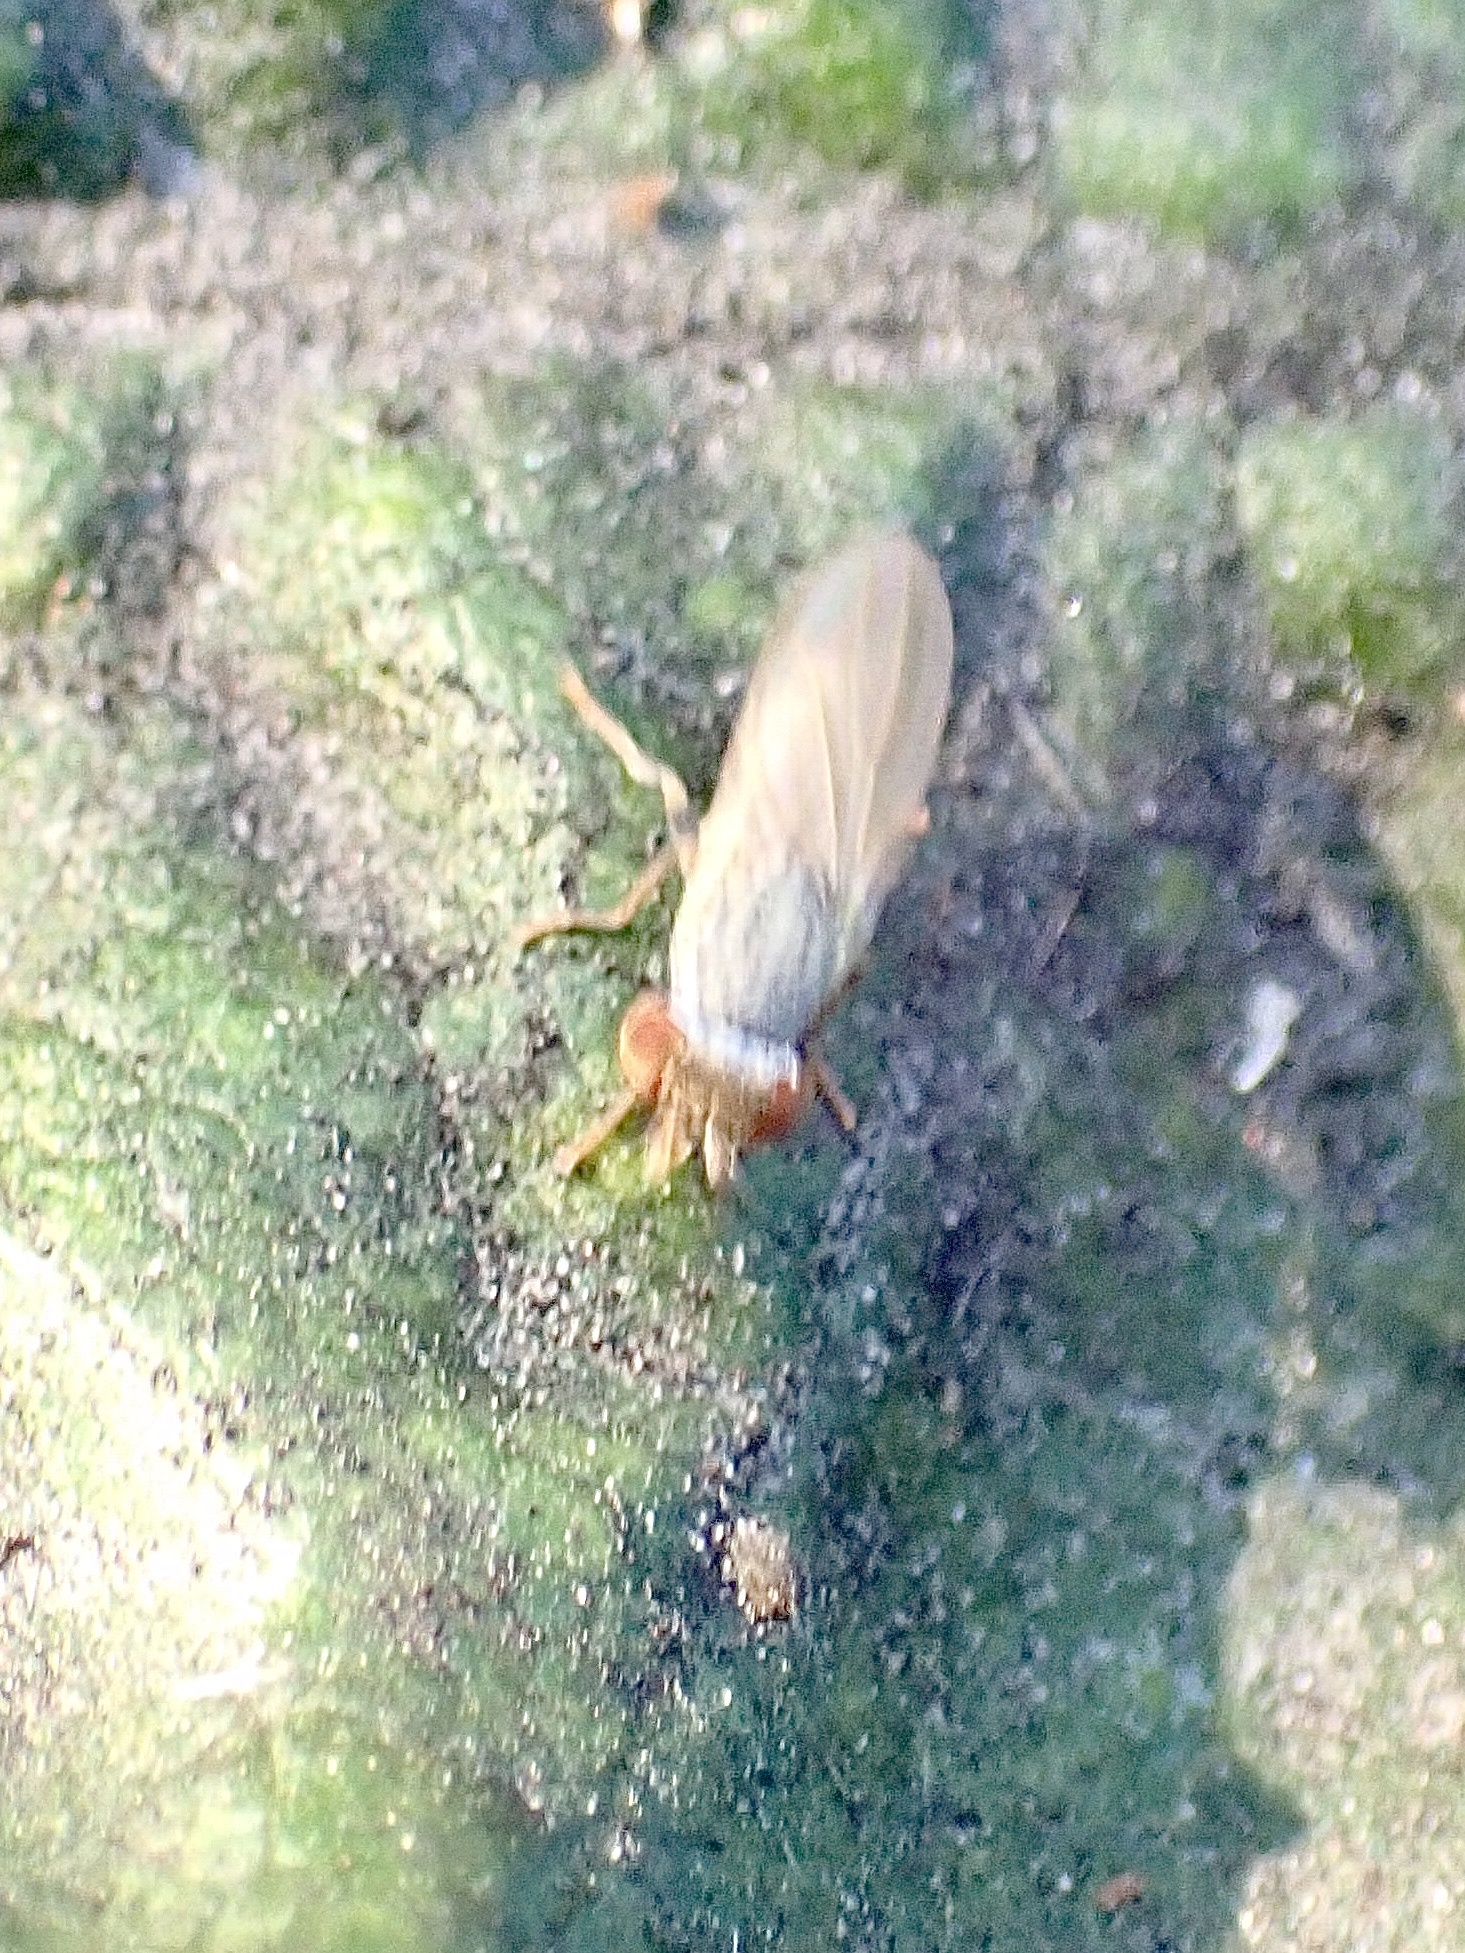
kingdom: Animalia
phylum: Arthropoda
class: Insecta
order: Diptera
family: Chamaemyiidae
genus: Parochthiphila
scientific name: Parochthiphila
